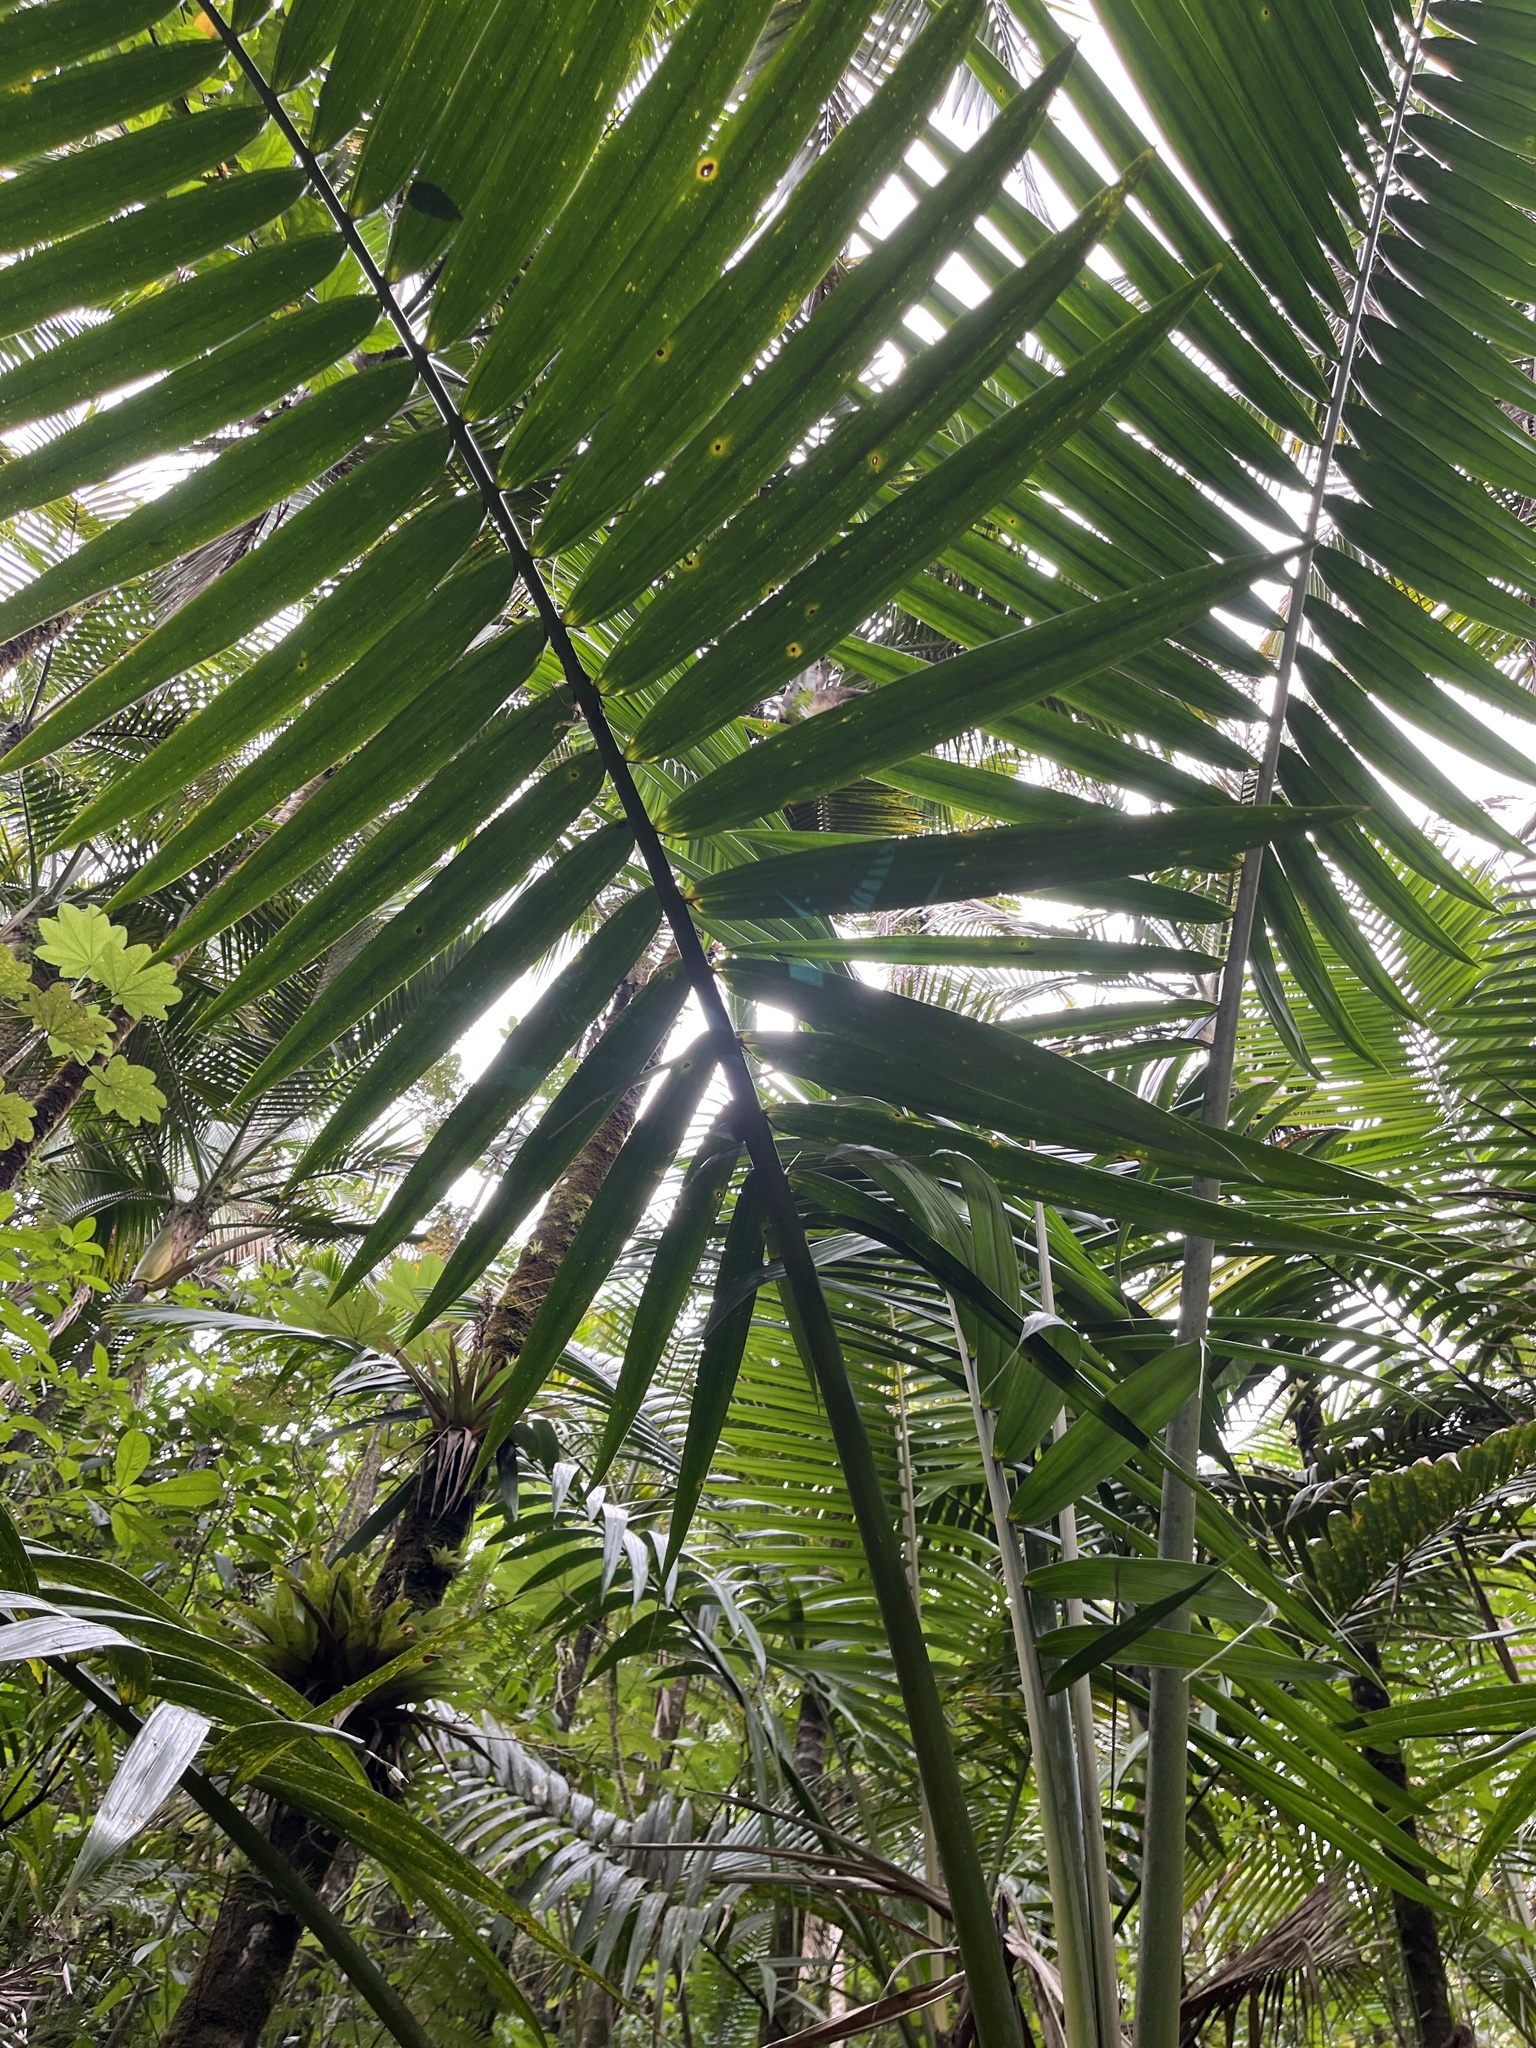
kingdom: Plantae
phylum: Tracheophyta
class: Liliopsida
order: Arecales
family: Arecaceae
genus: Prestoea
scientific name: Prestoea acuminata
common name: Sierran palm
